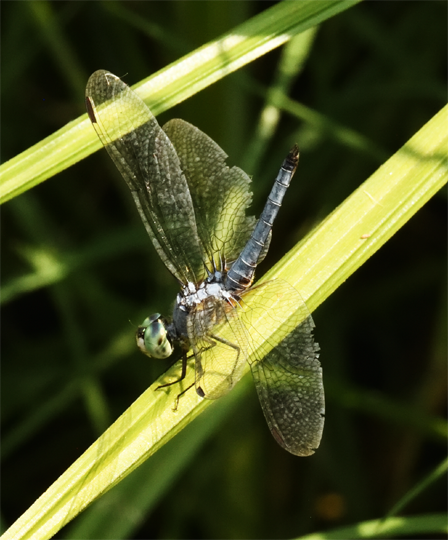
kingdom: Animalia
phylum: Arthropoda
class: Insecta
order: Odonata
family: Libellulidae
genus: Pachydiplax
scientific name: Pachydiplax longipennis
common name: Blue dasher
